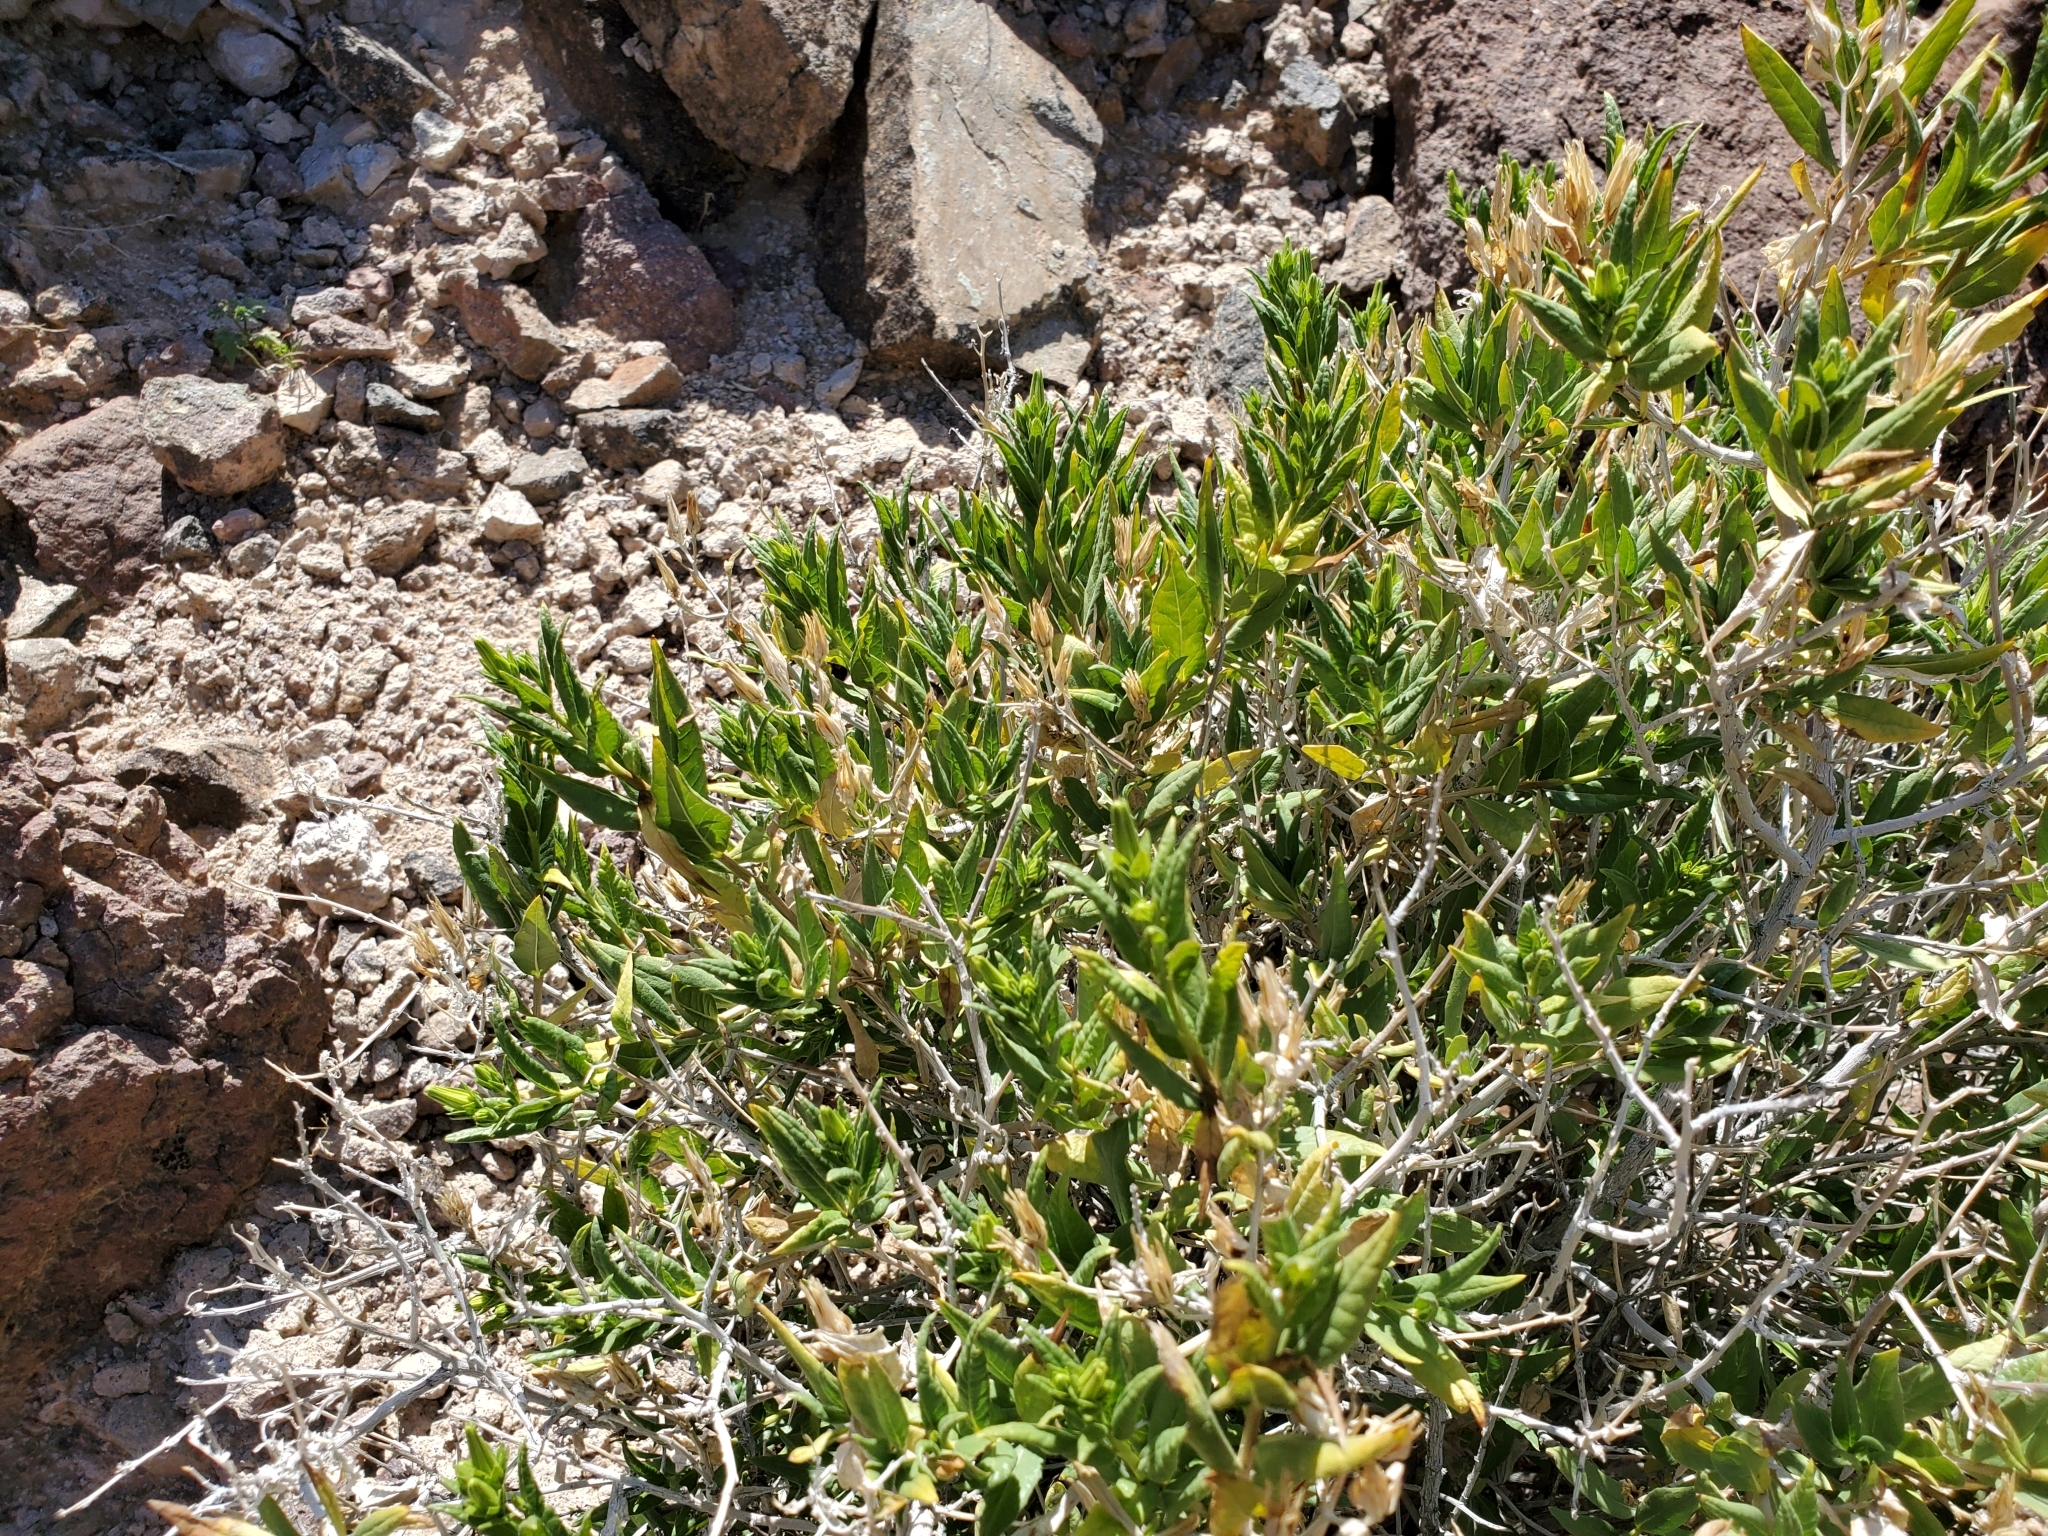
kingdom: Plantae
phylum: Tracheophyta
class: Magnoliopsida
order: Asterales
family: Asteraceae
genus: Trixis
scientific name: Trixis californica
